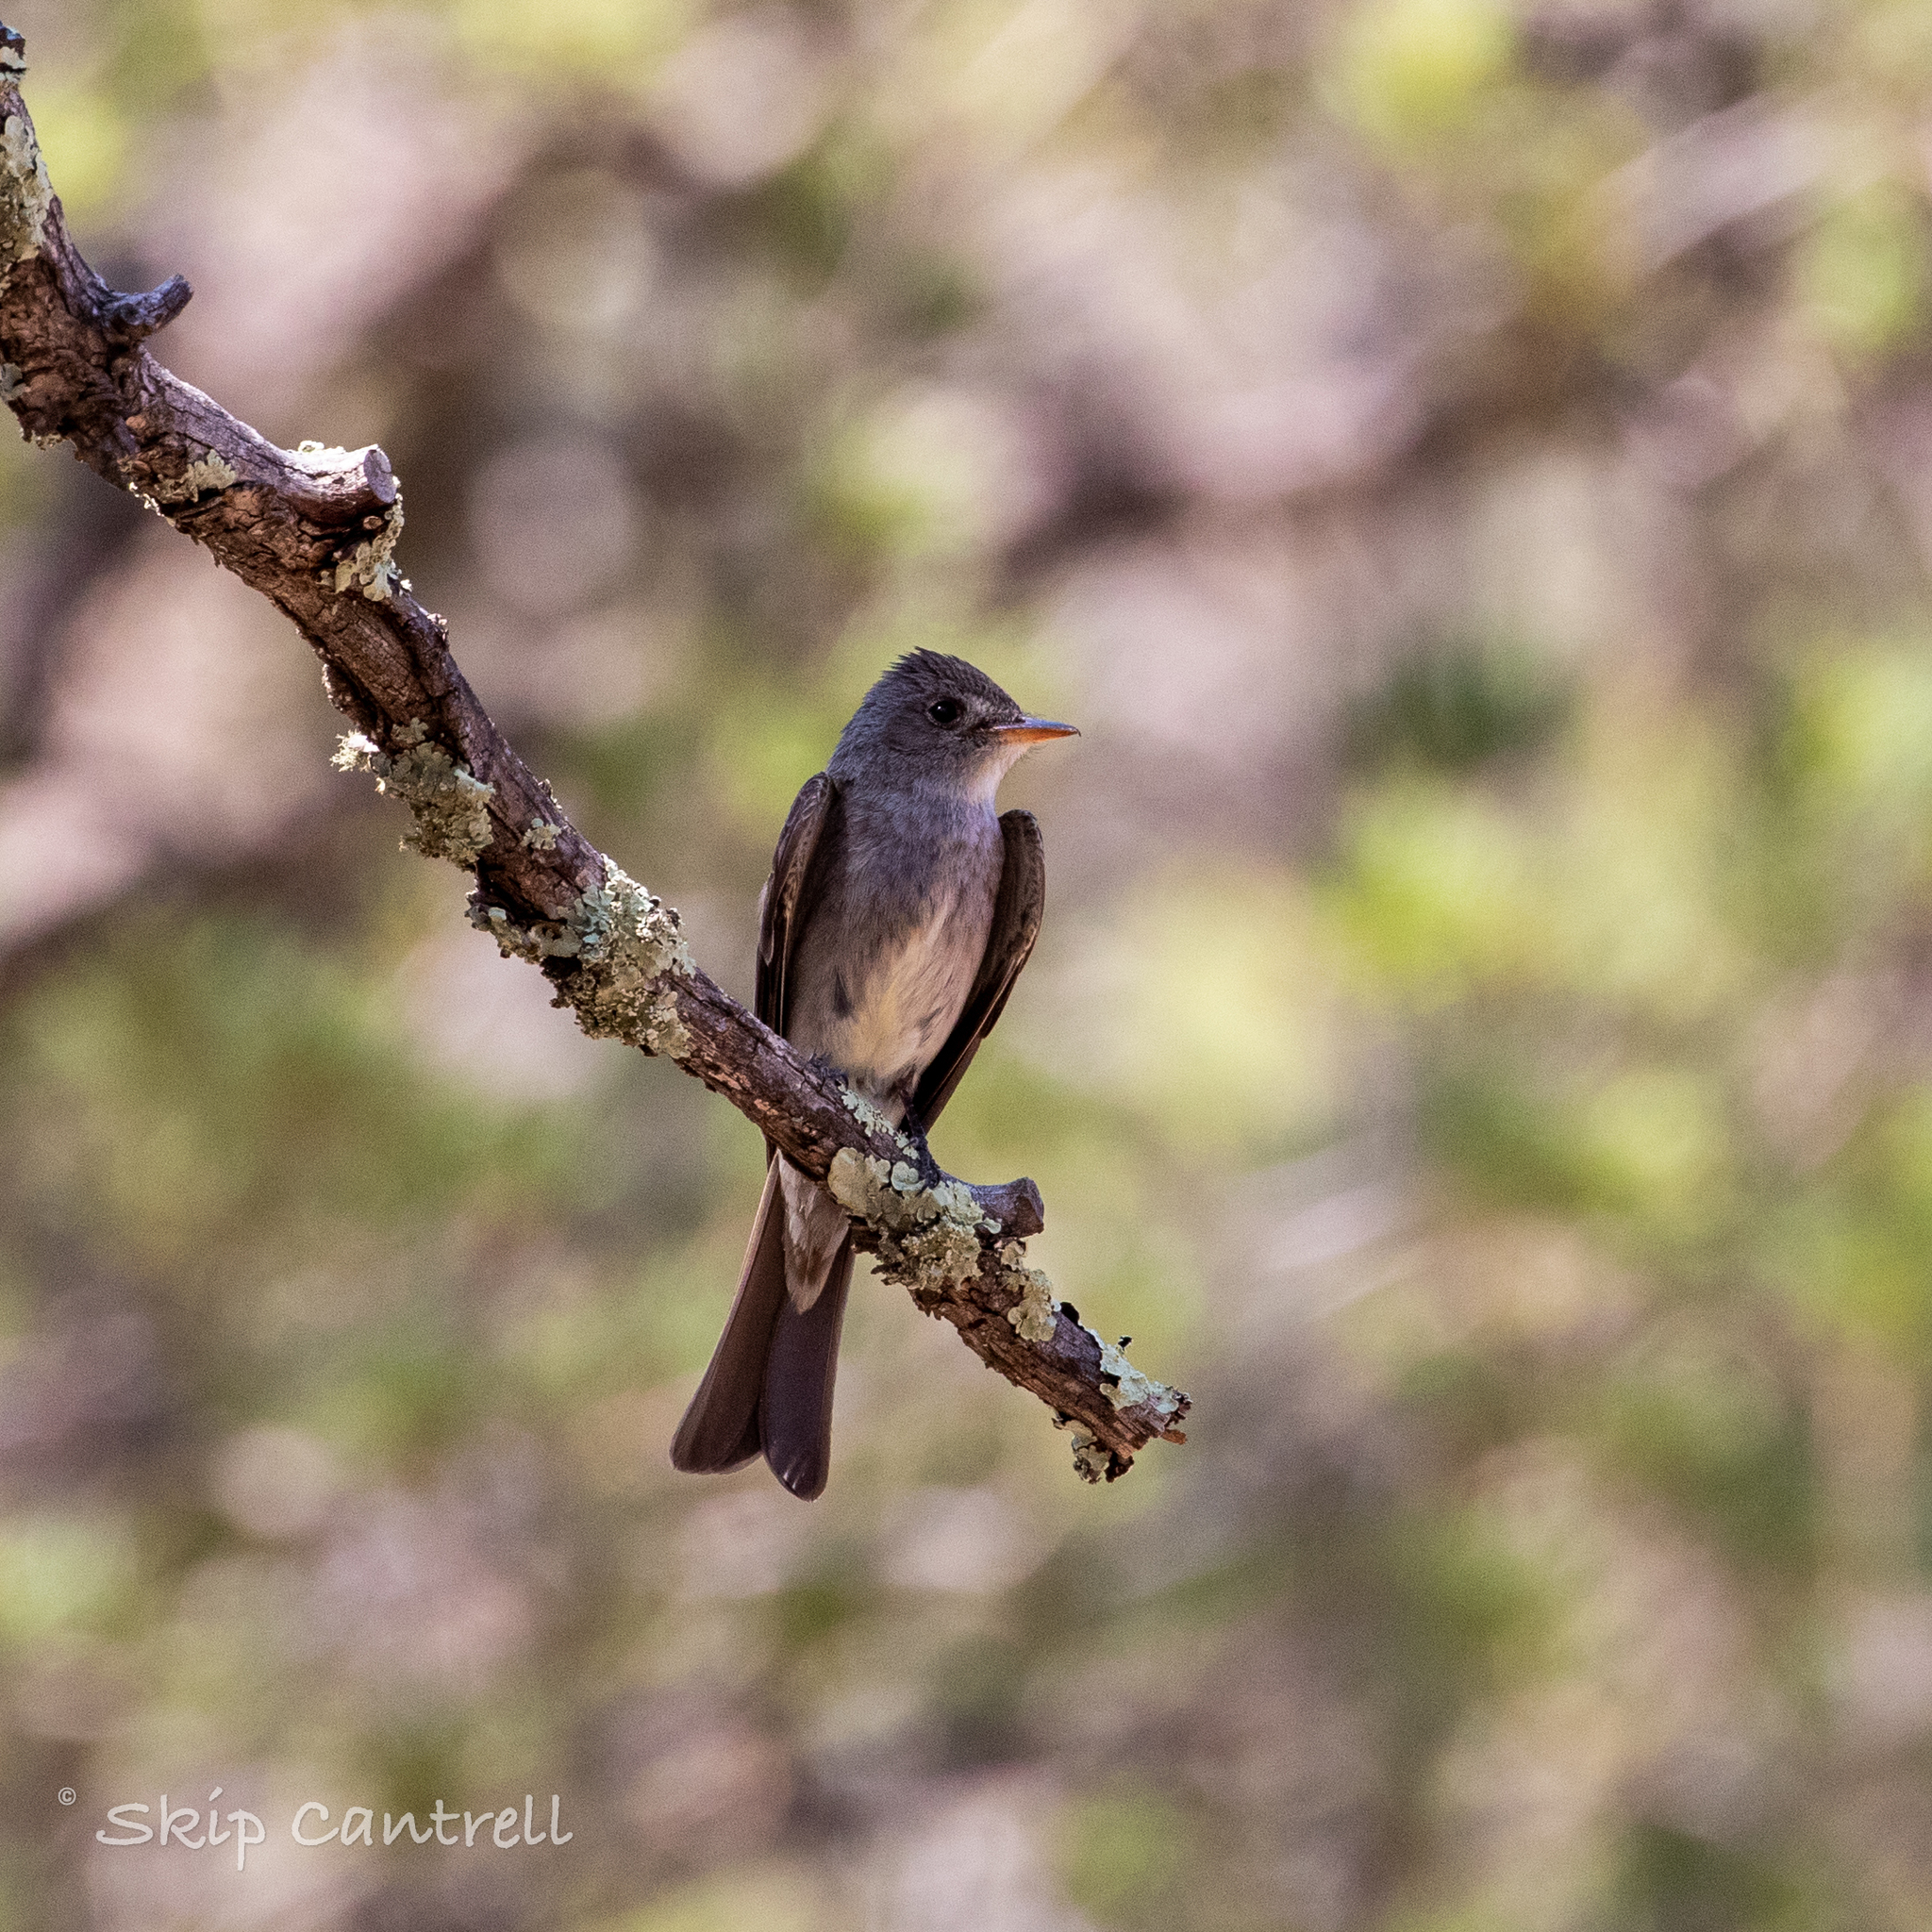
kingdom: Animalia
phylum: Chordata
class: Aves
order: Passeriformes
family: Tyrannidae
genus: Contopus
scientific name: Contopus sordidulus
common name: Western wood-pewee
